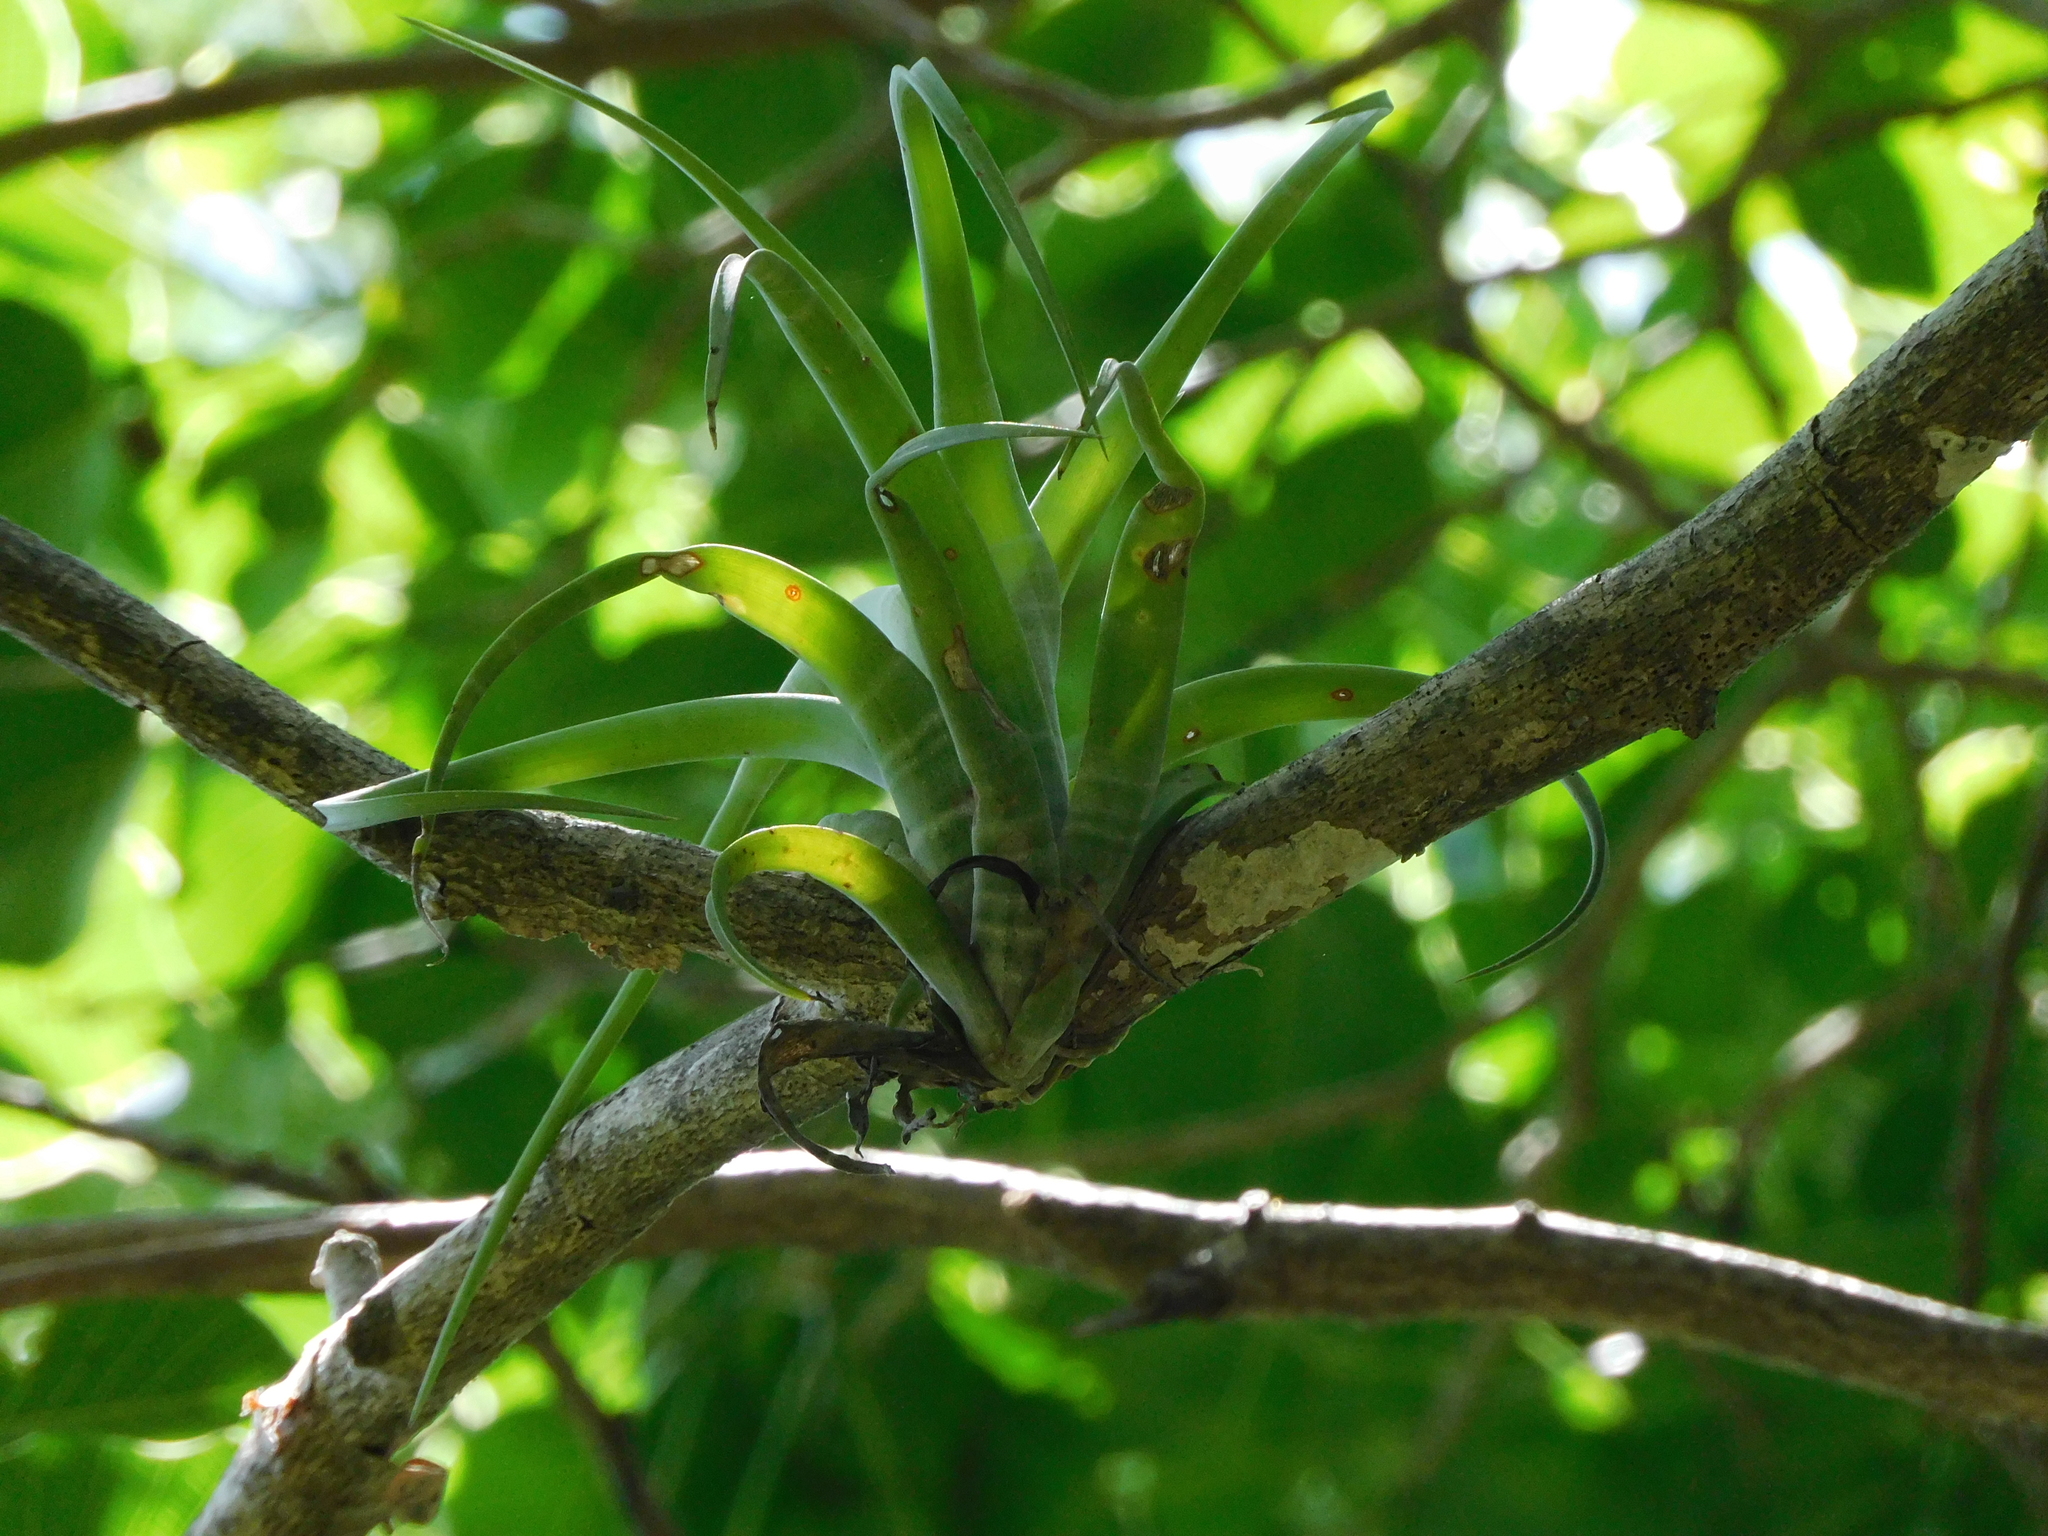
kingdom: Plantae
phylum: Tracheophyta
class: Liliopsida
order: Poales
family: Bromeliaceae
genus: Tillandsia
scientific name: Tillandsia flexuosa
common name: Banded airplant
